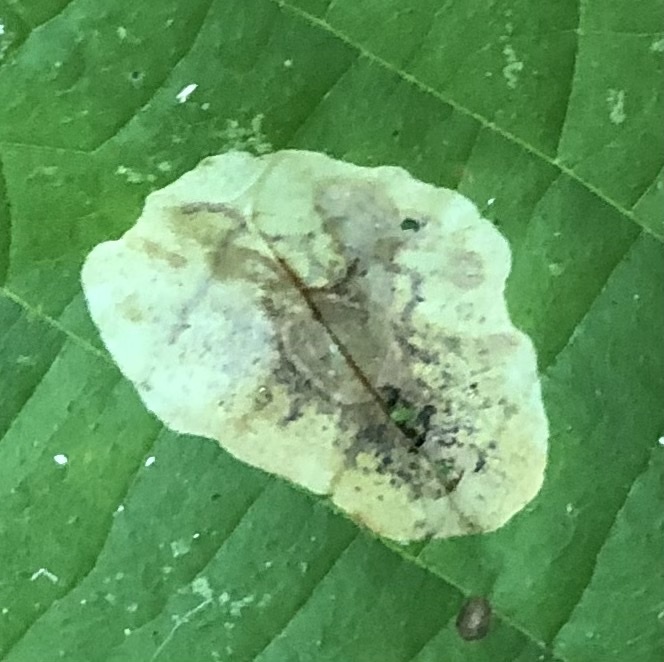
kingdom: Animalia
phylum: Arthropoda
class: Insecta
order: Lepidoptera
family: Gracillariidae
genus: Cameraria
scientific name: Cameraria corylisella
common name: Hazel blotchminer
